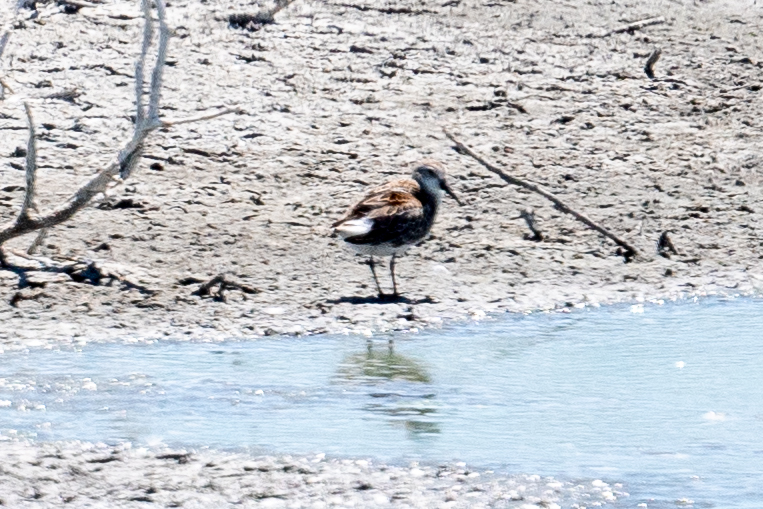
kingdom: Animalia
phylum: Chordata
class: Aves
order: Charadriiformes
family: Scolopacidae
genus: Calidris
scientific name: Calidris mauri
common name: Western sandpiper
